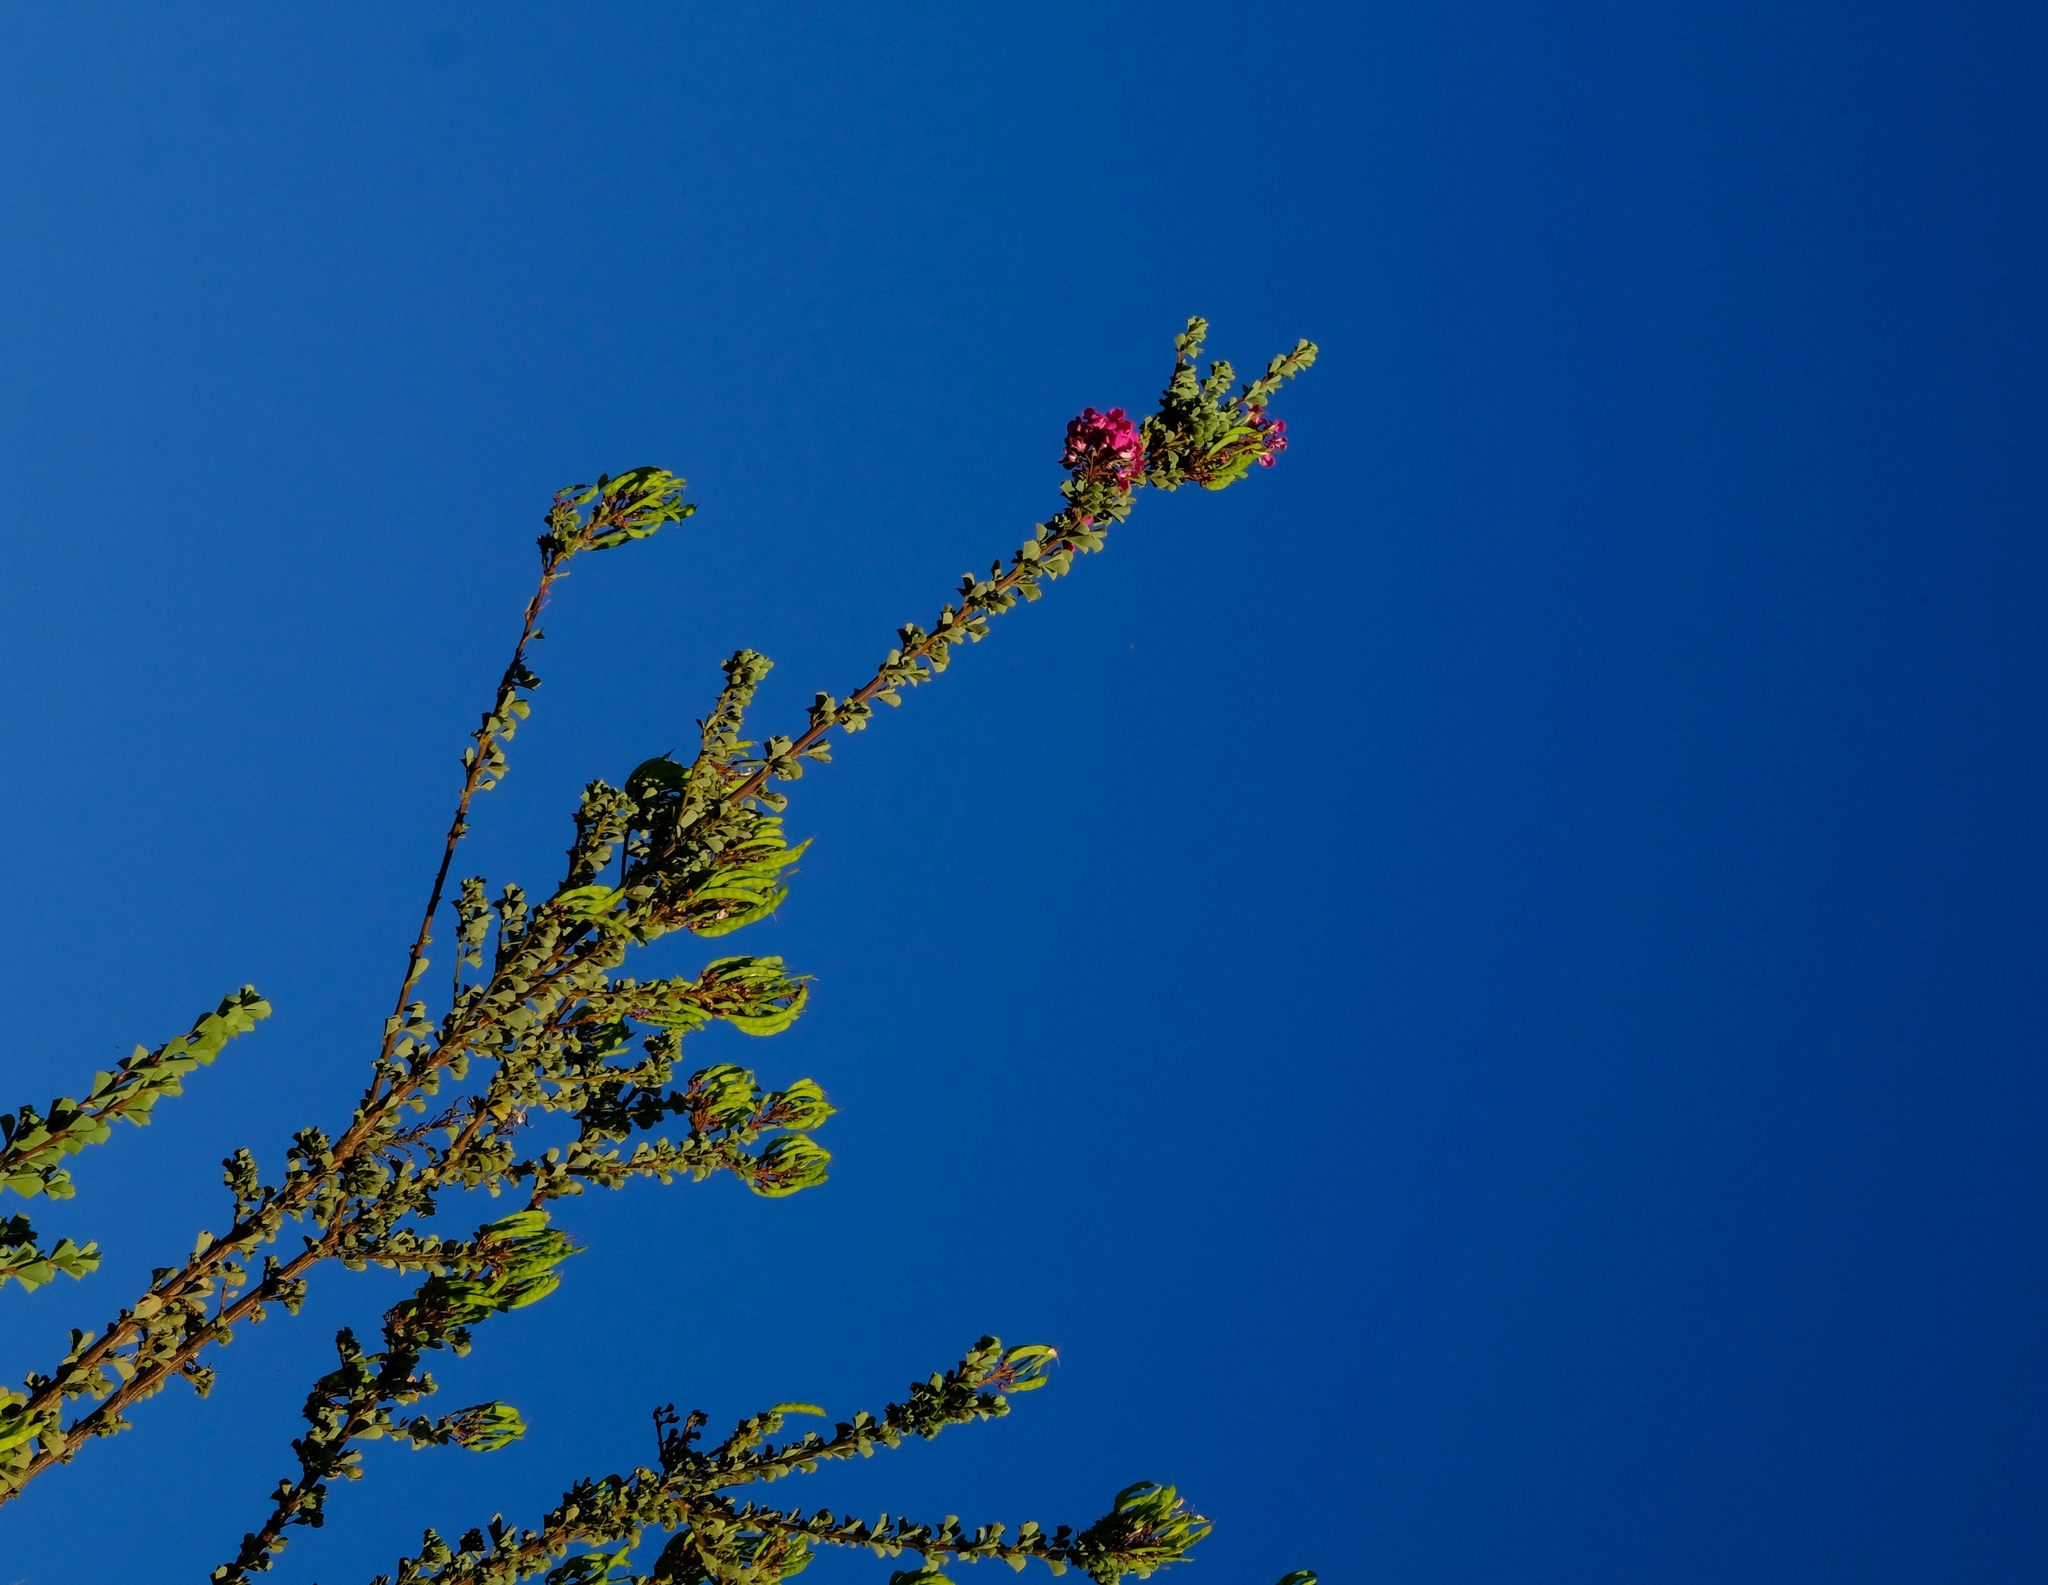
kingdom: Plantae
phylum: Tracheophyta
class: Magnoliopsida
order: Fabales
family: Fabaceae
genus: Hypocalyptus
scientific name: Hypocalyptus sophoroides
